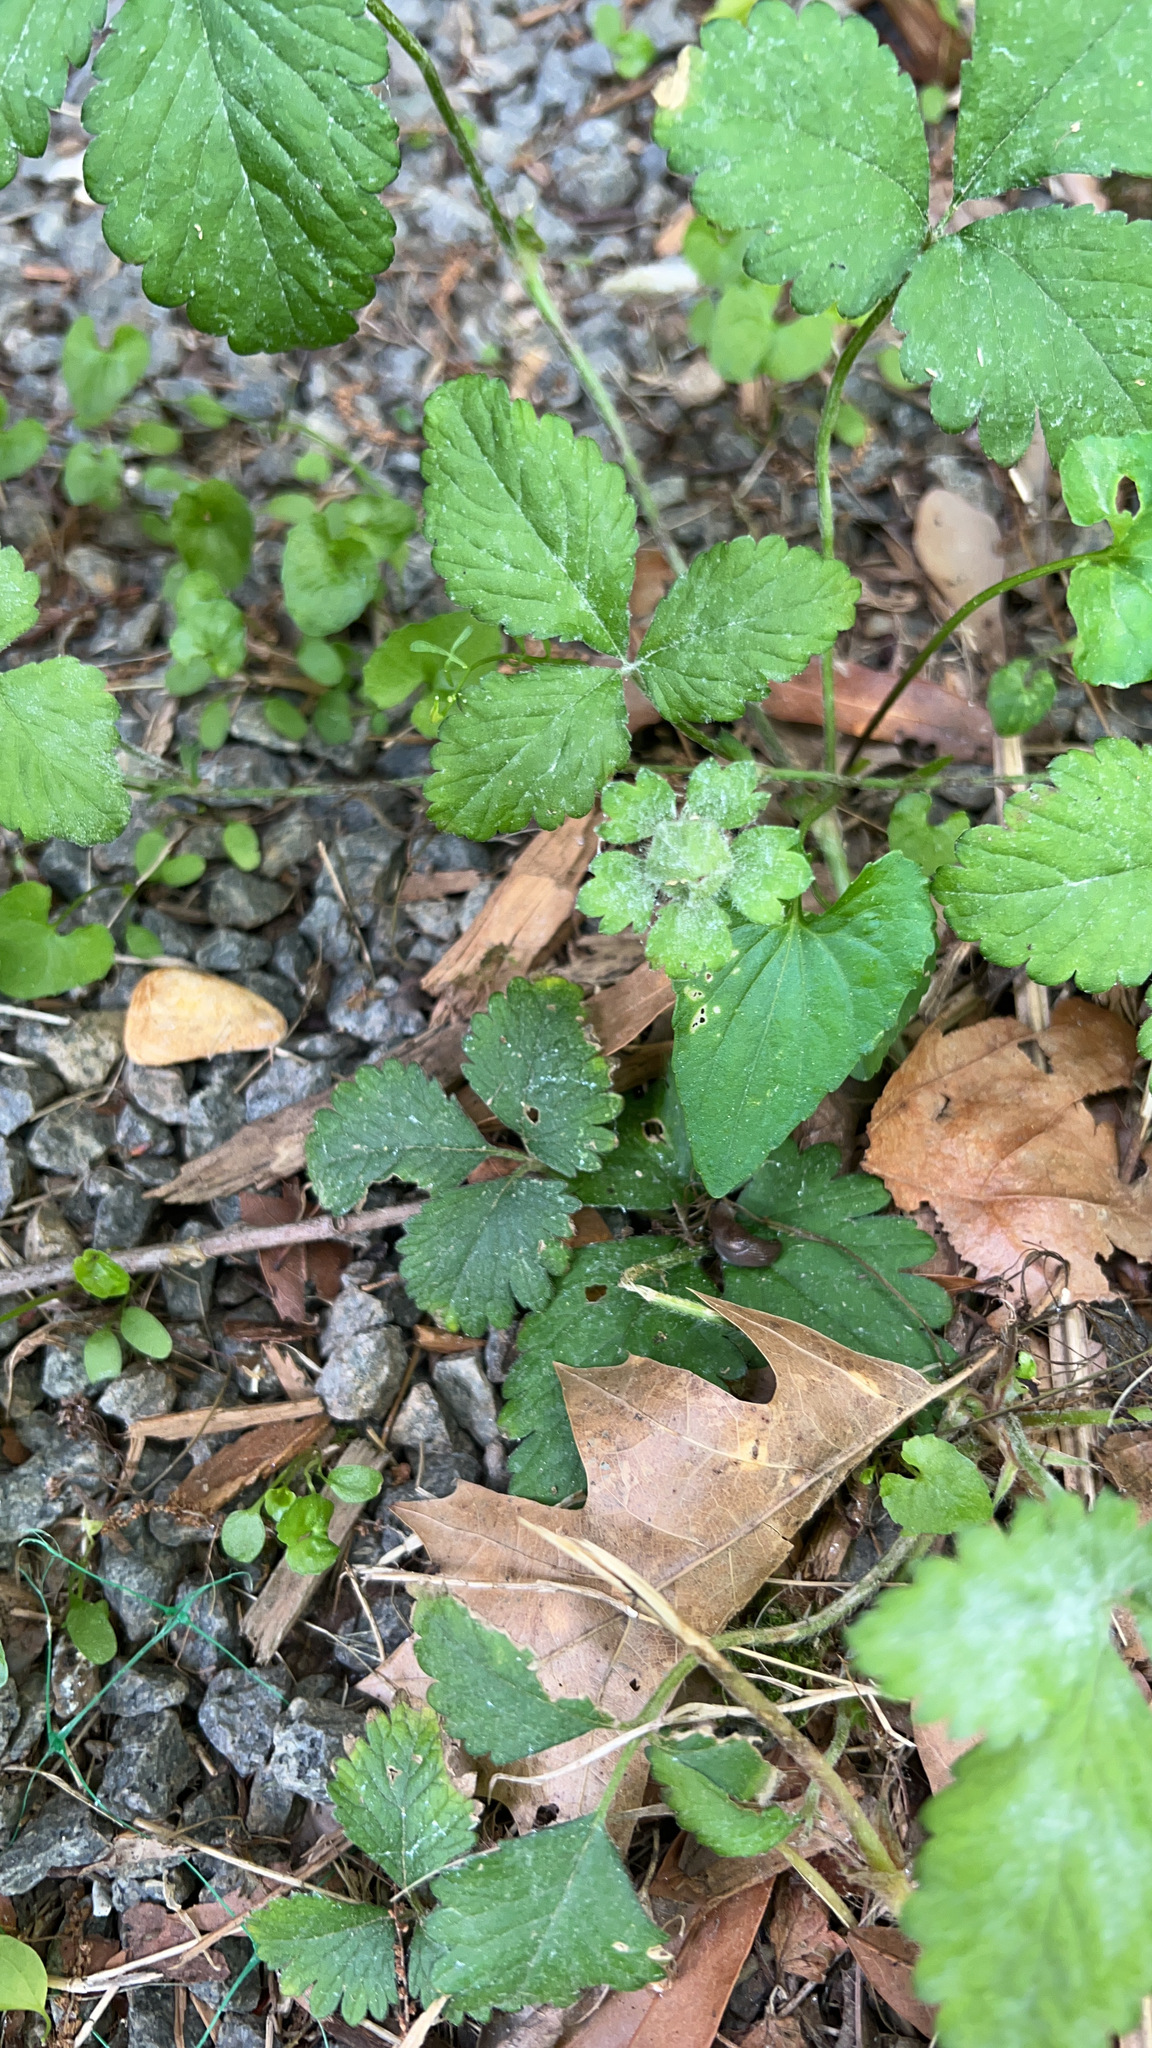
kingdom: Plantae
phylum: Tracheophyta
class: Magnoliopsida
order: Rosales
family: Rosaceae
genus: Potentilla
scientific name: Potentilla indica
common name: Yellow-flowered strawberry
